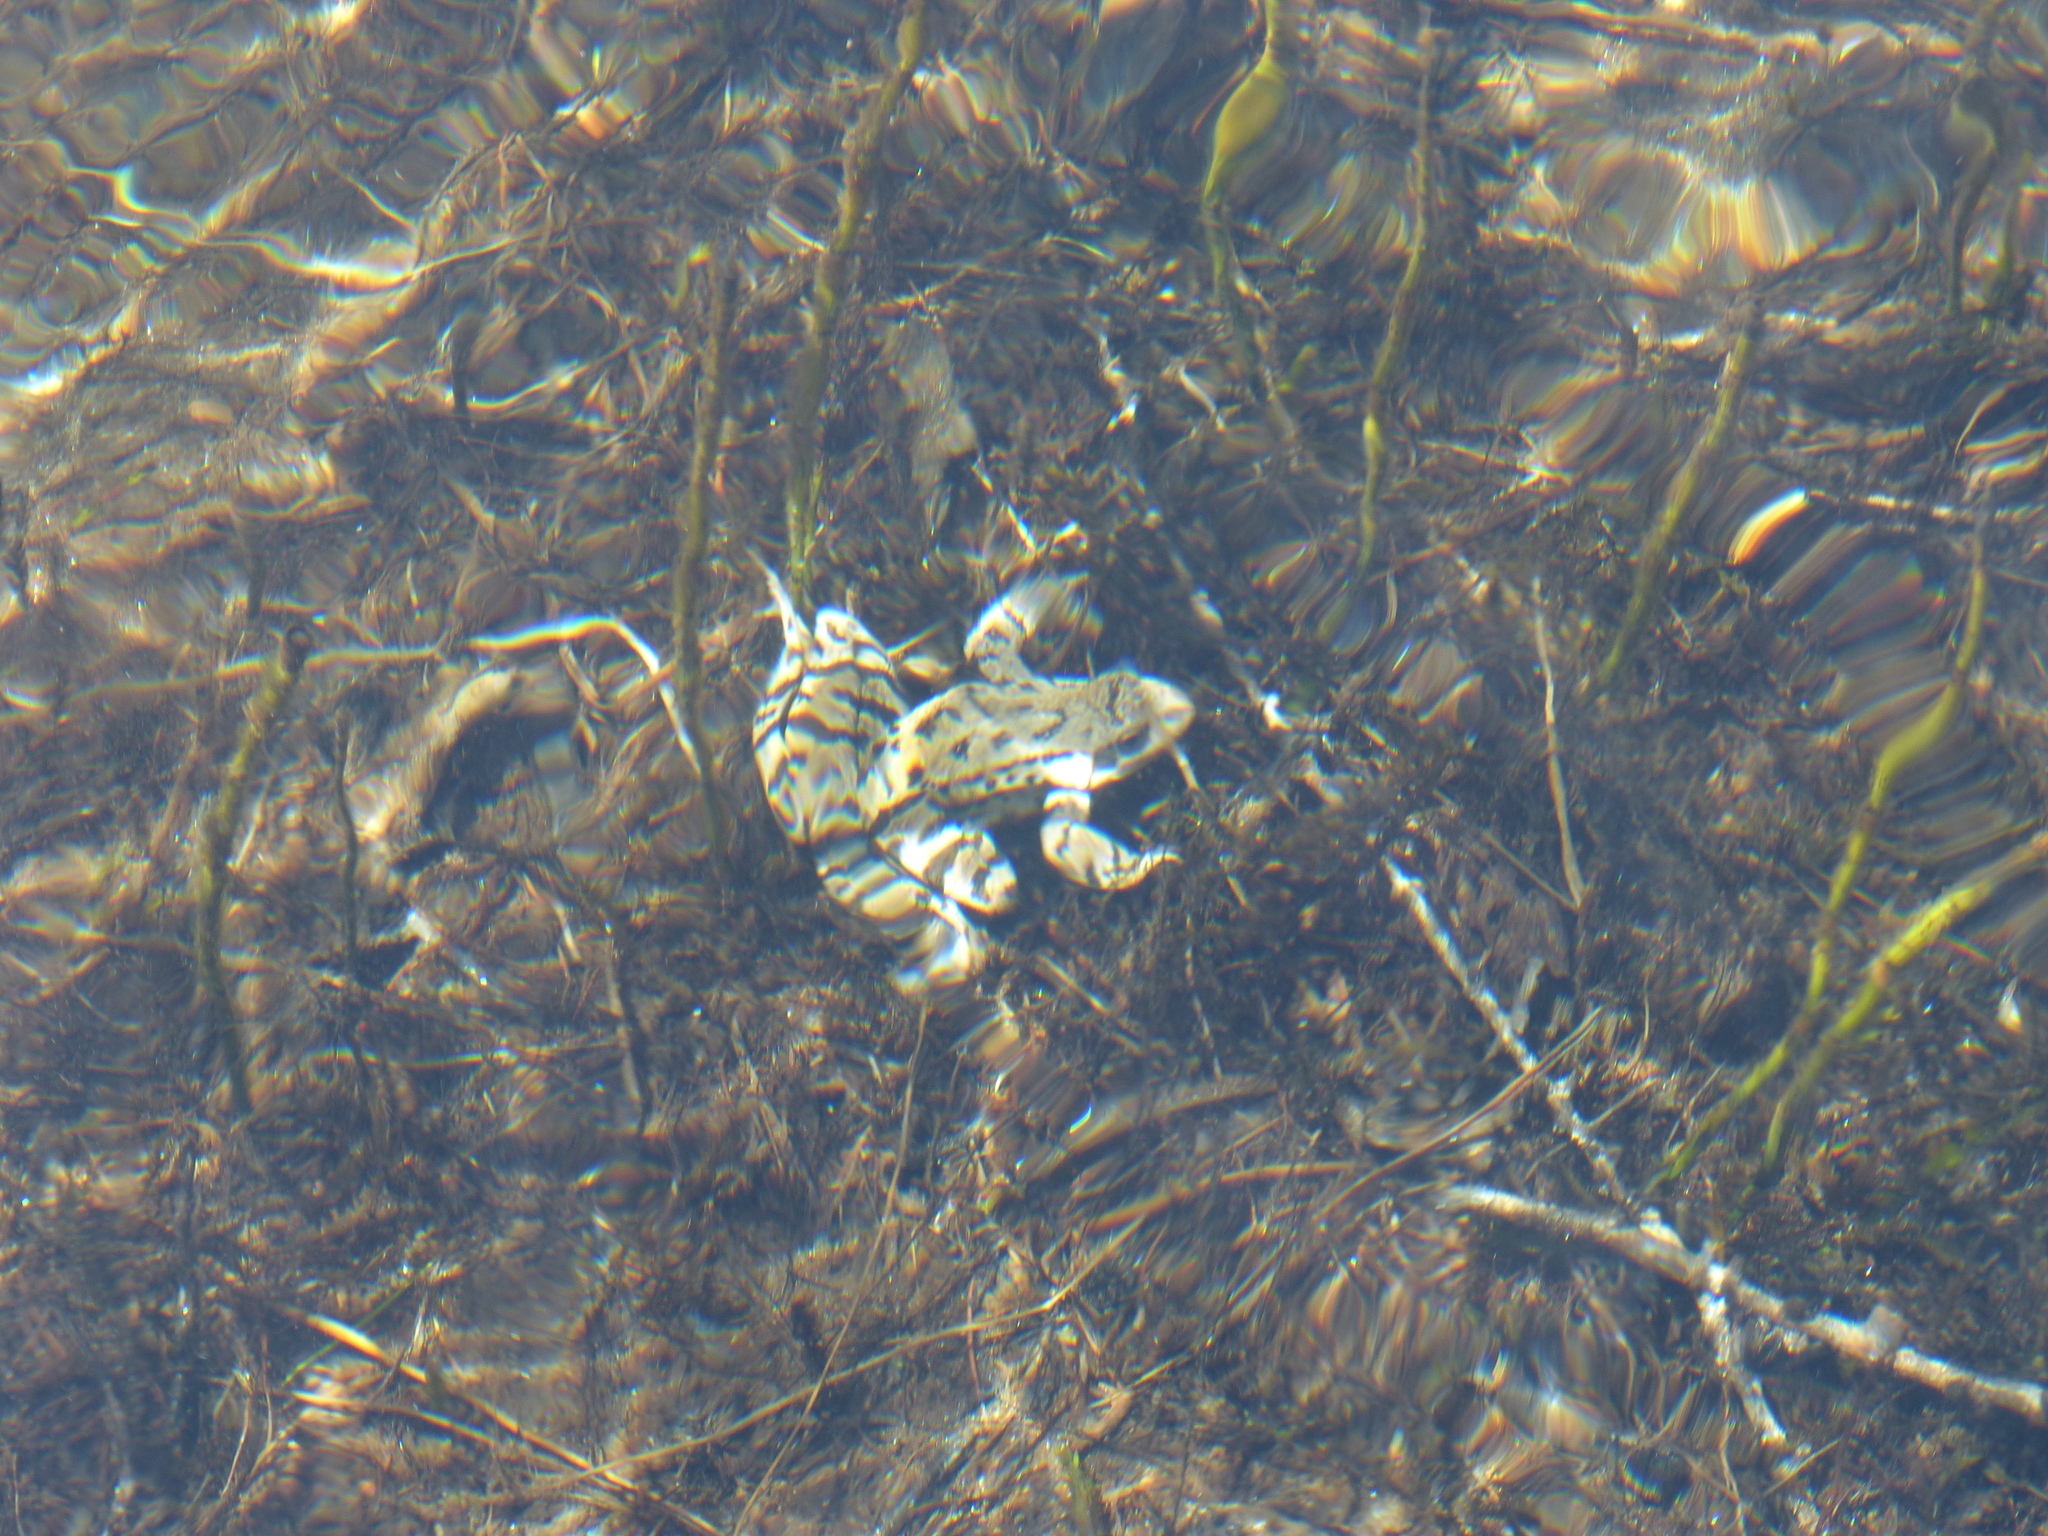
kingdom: Animalia
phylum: Chordata
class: Amphibia
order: Anura
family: Ranidae
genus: Rana
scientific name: Rana temporaria
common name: Common frog
